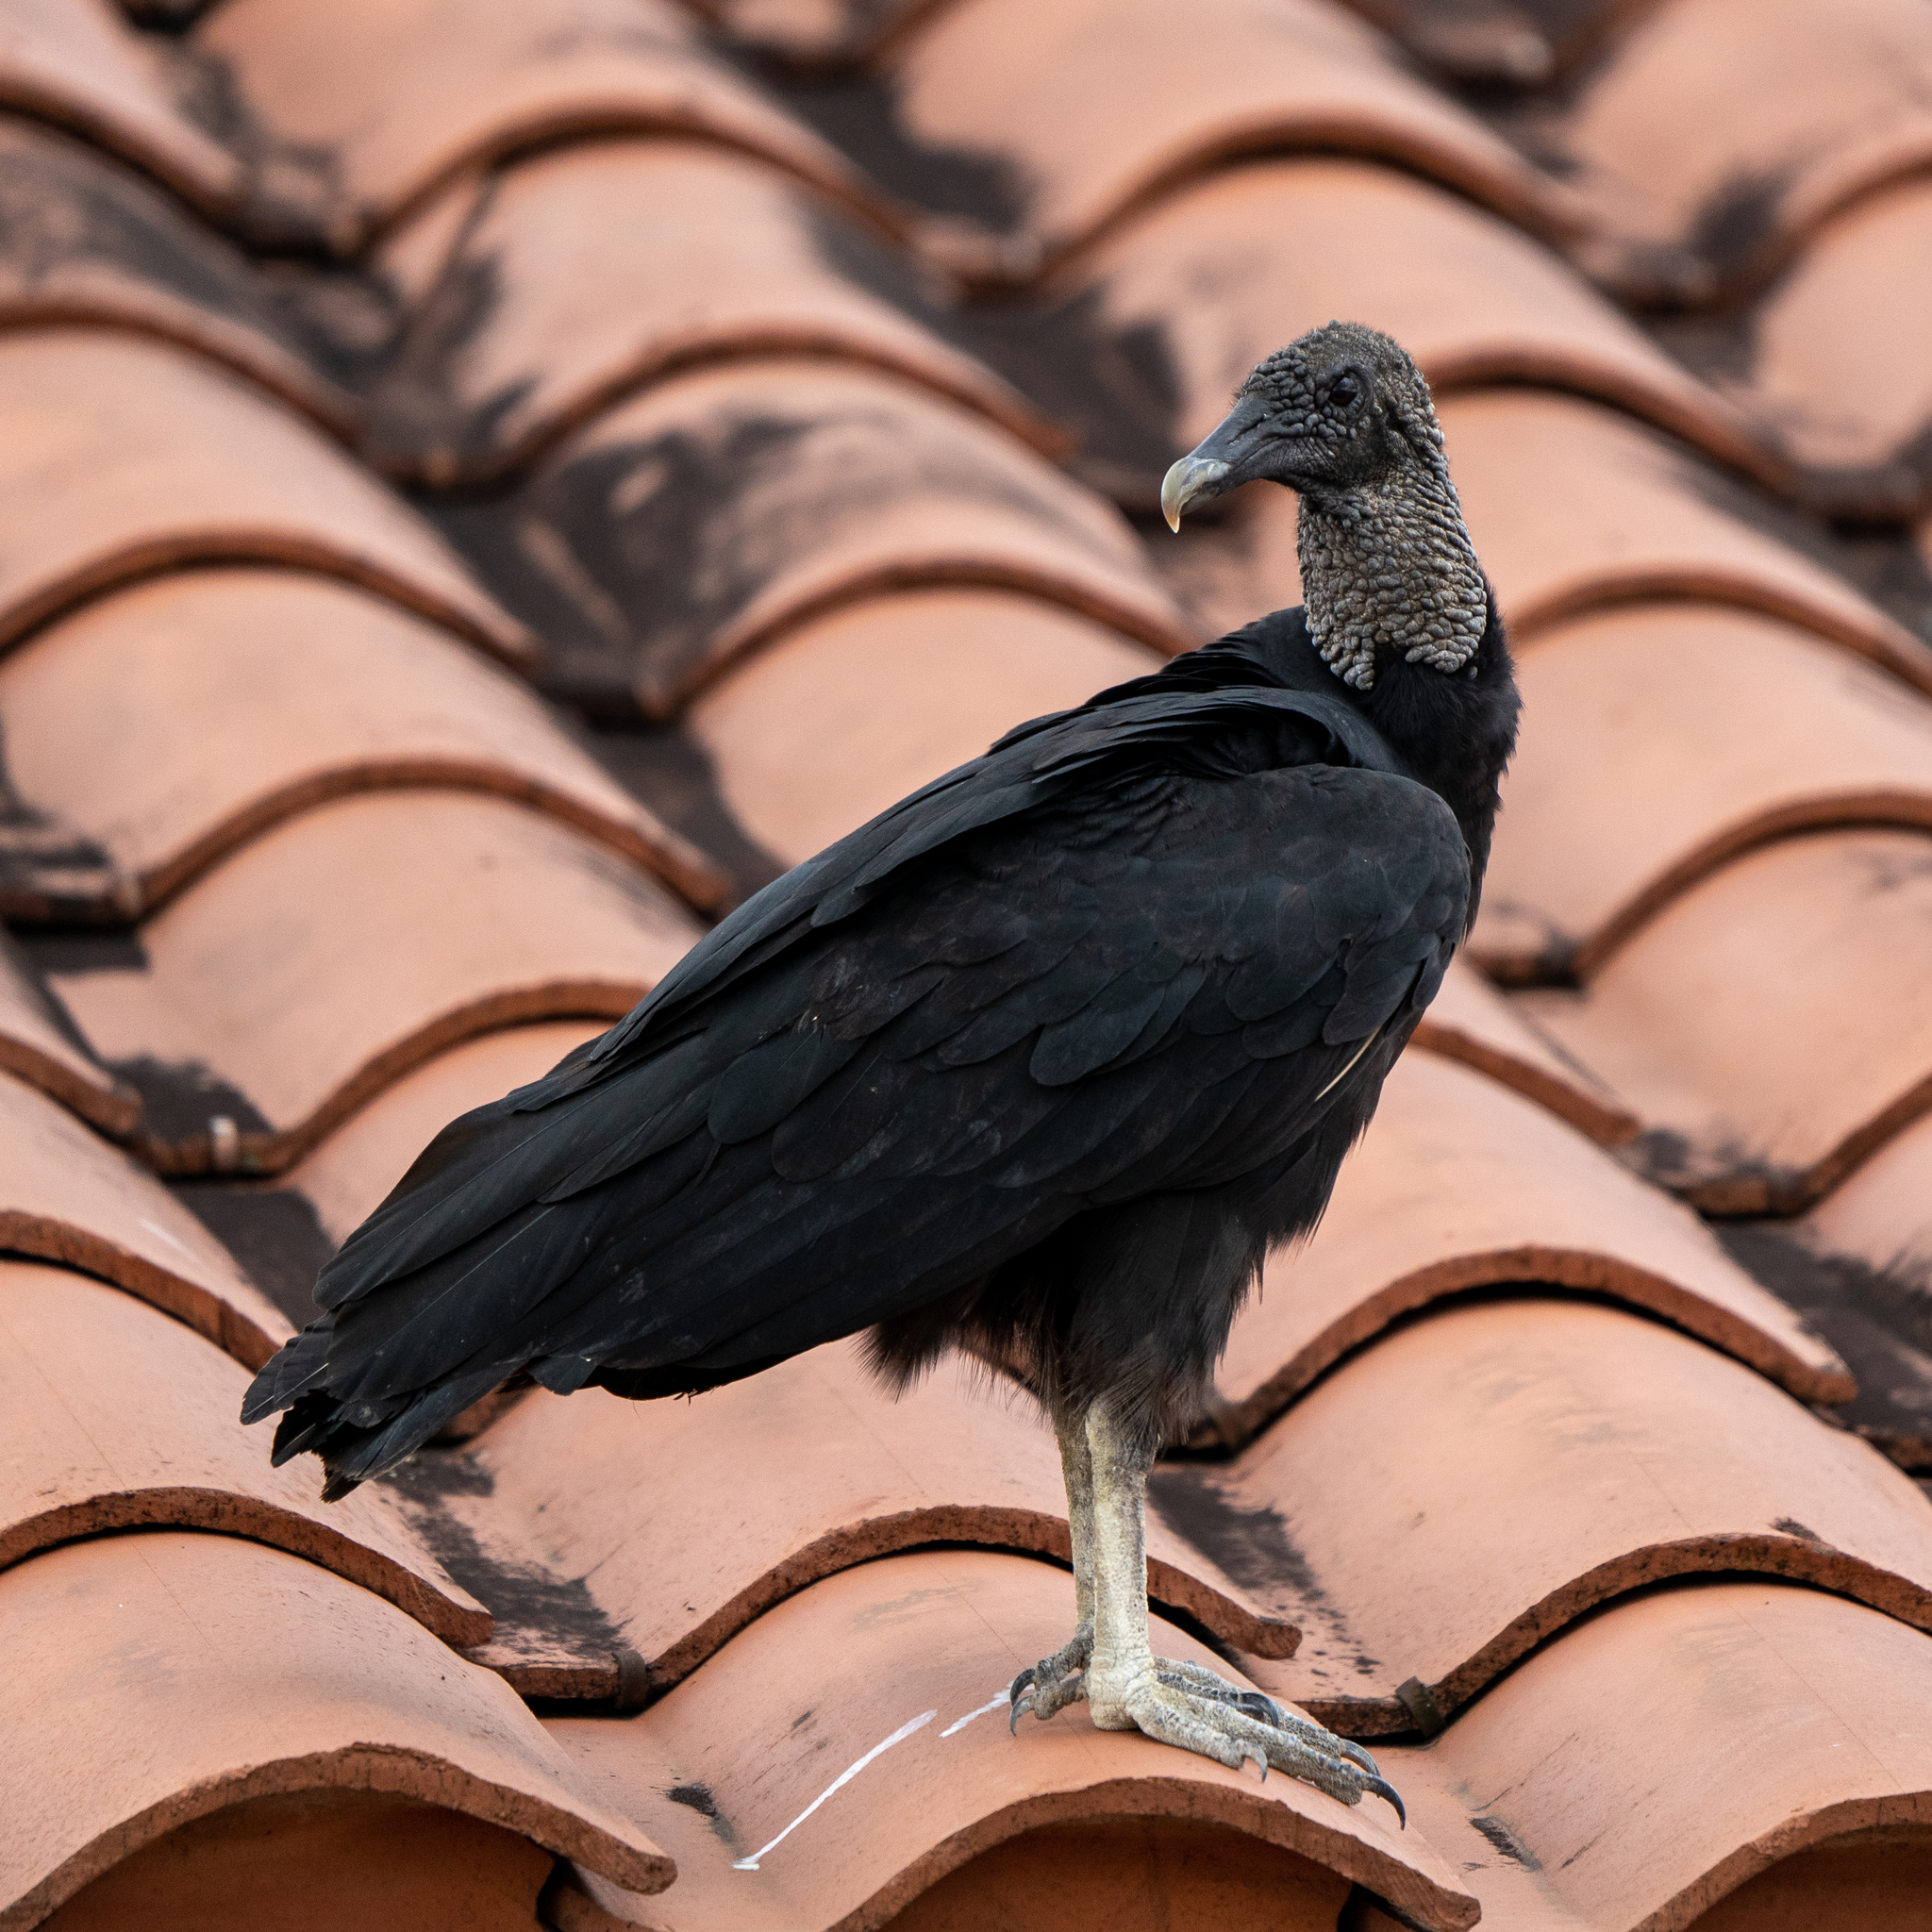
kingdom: Animalia
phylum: Chordata
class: Aves
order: Accipitriformes
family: Cathartidae
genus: Coragyps
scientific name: Coragyps atratus
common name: Black vulture
